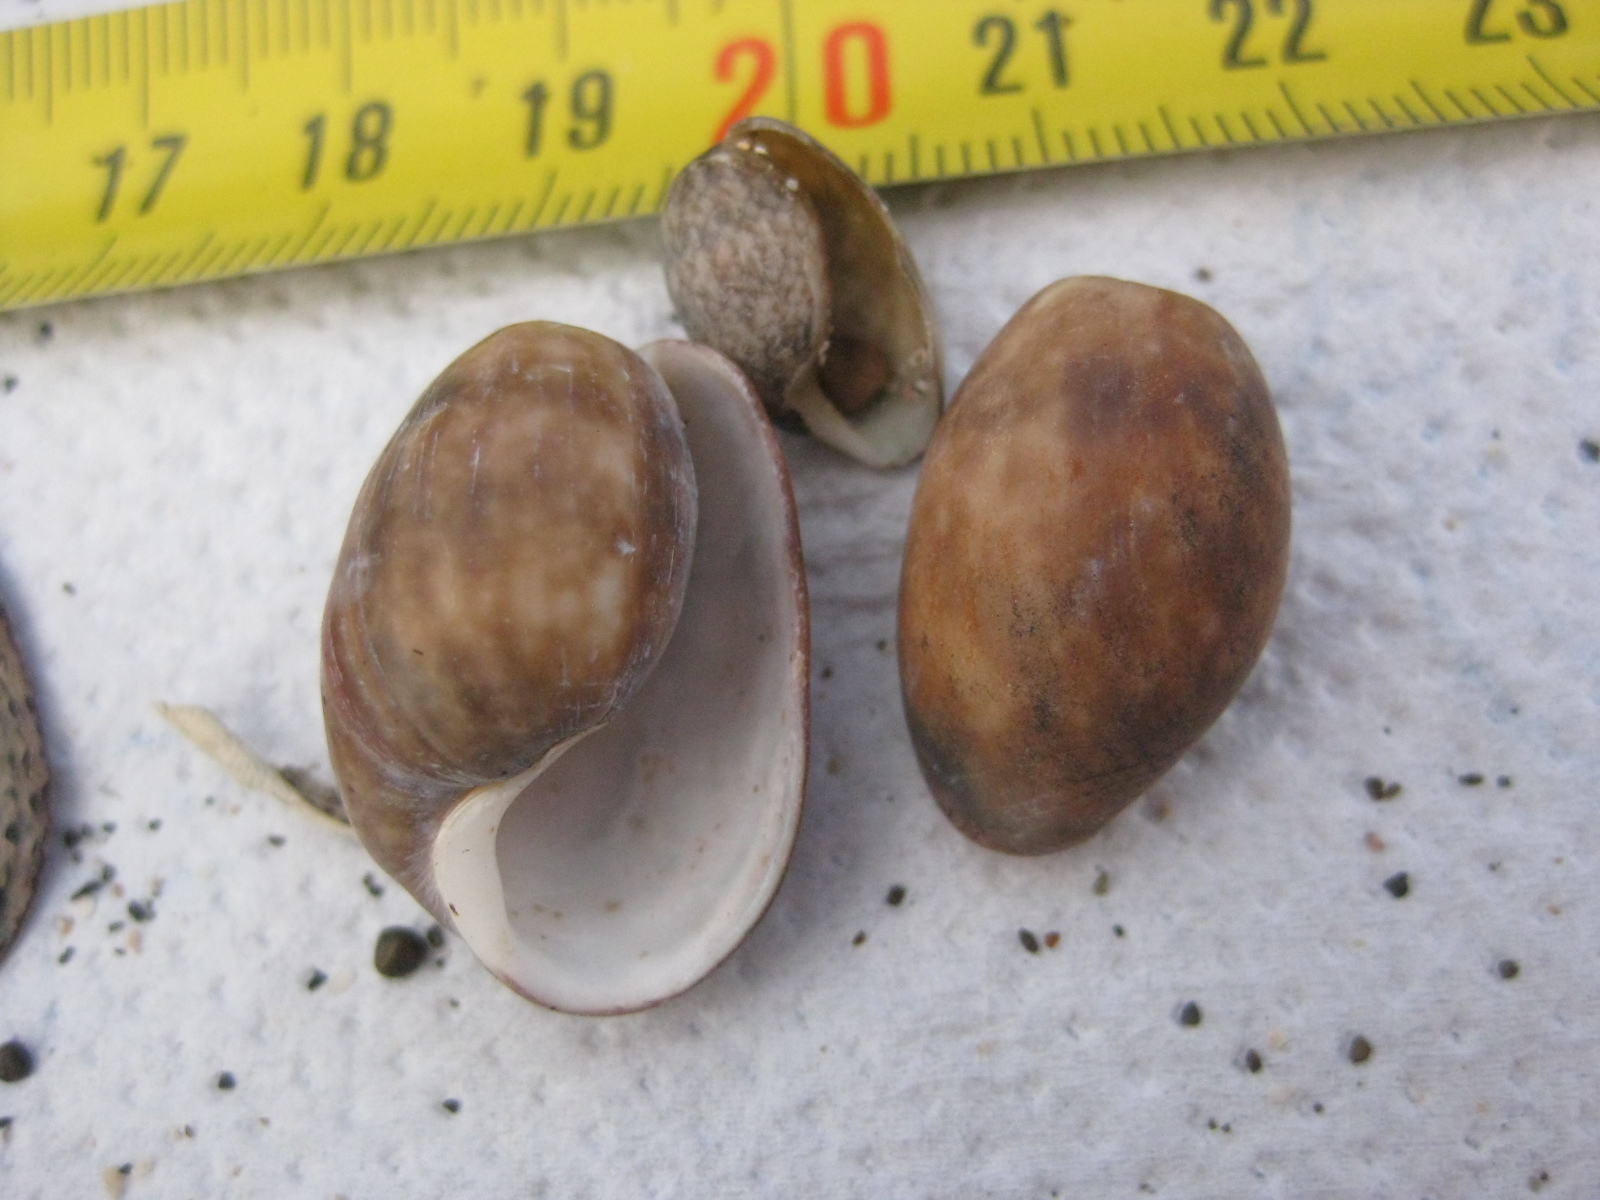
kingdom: Animalia
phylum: Mollusca
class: Gastropoda
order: Cephalaspidea
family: Bullidae
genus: Bulla
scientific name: Bulla quoyii
